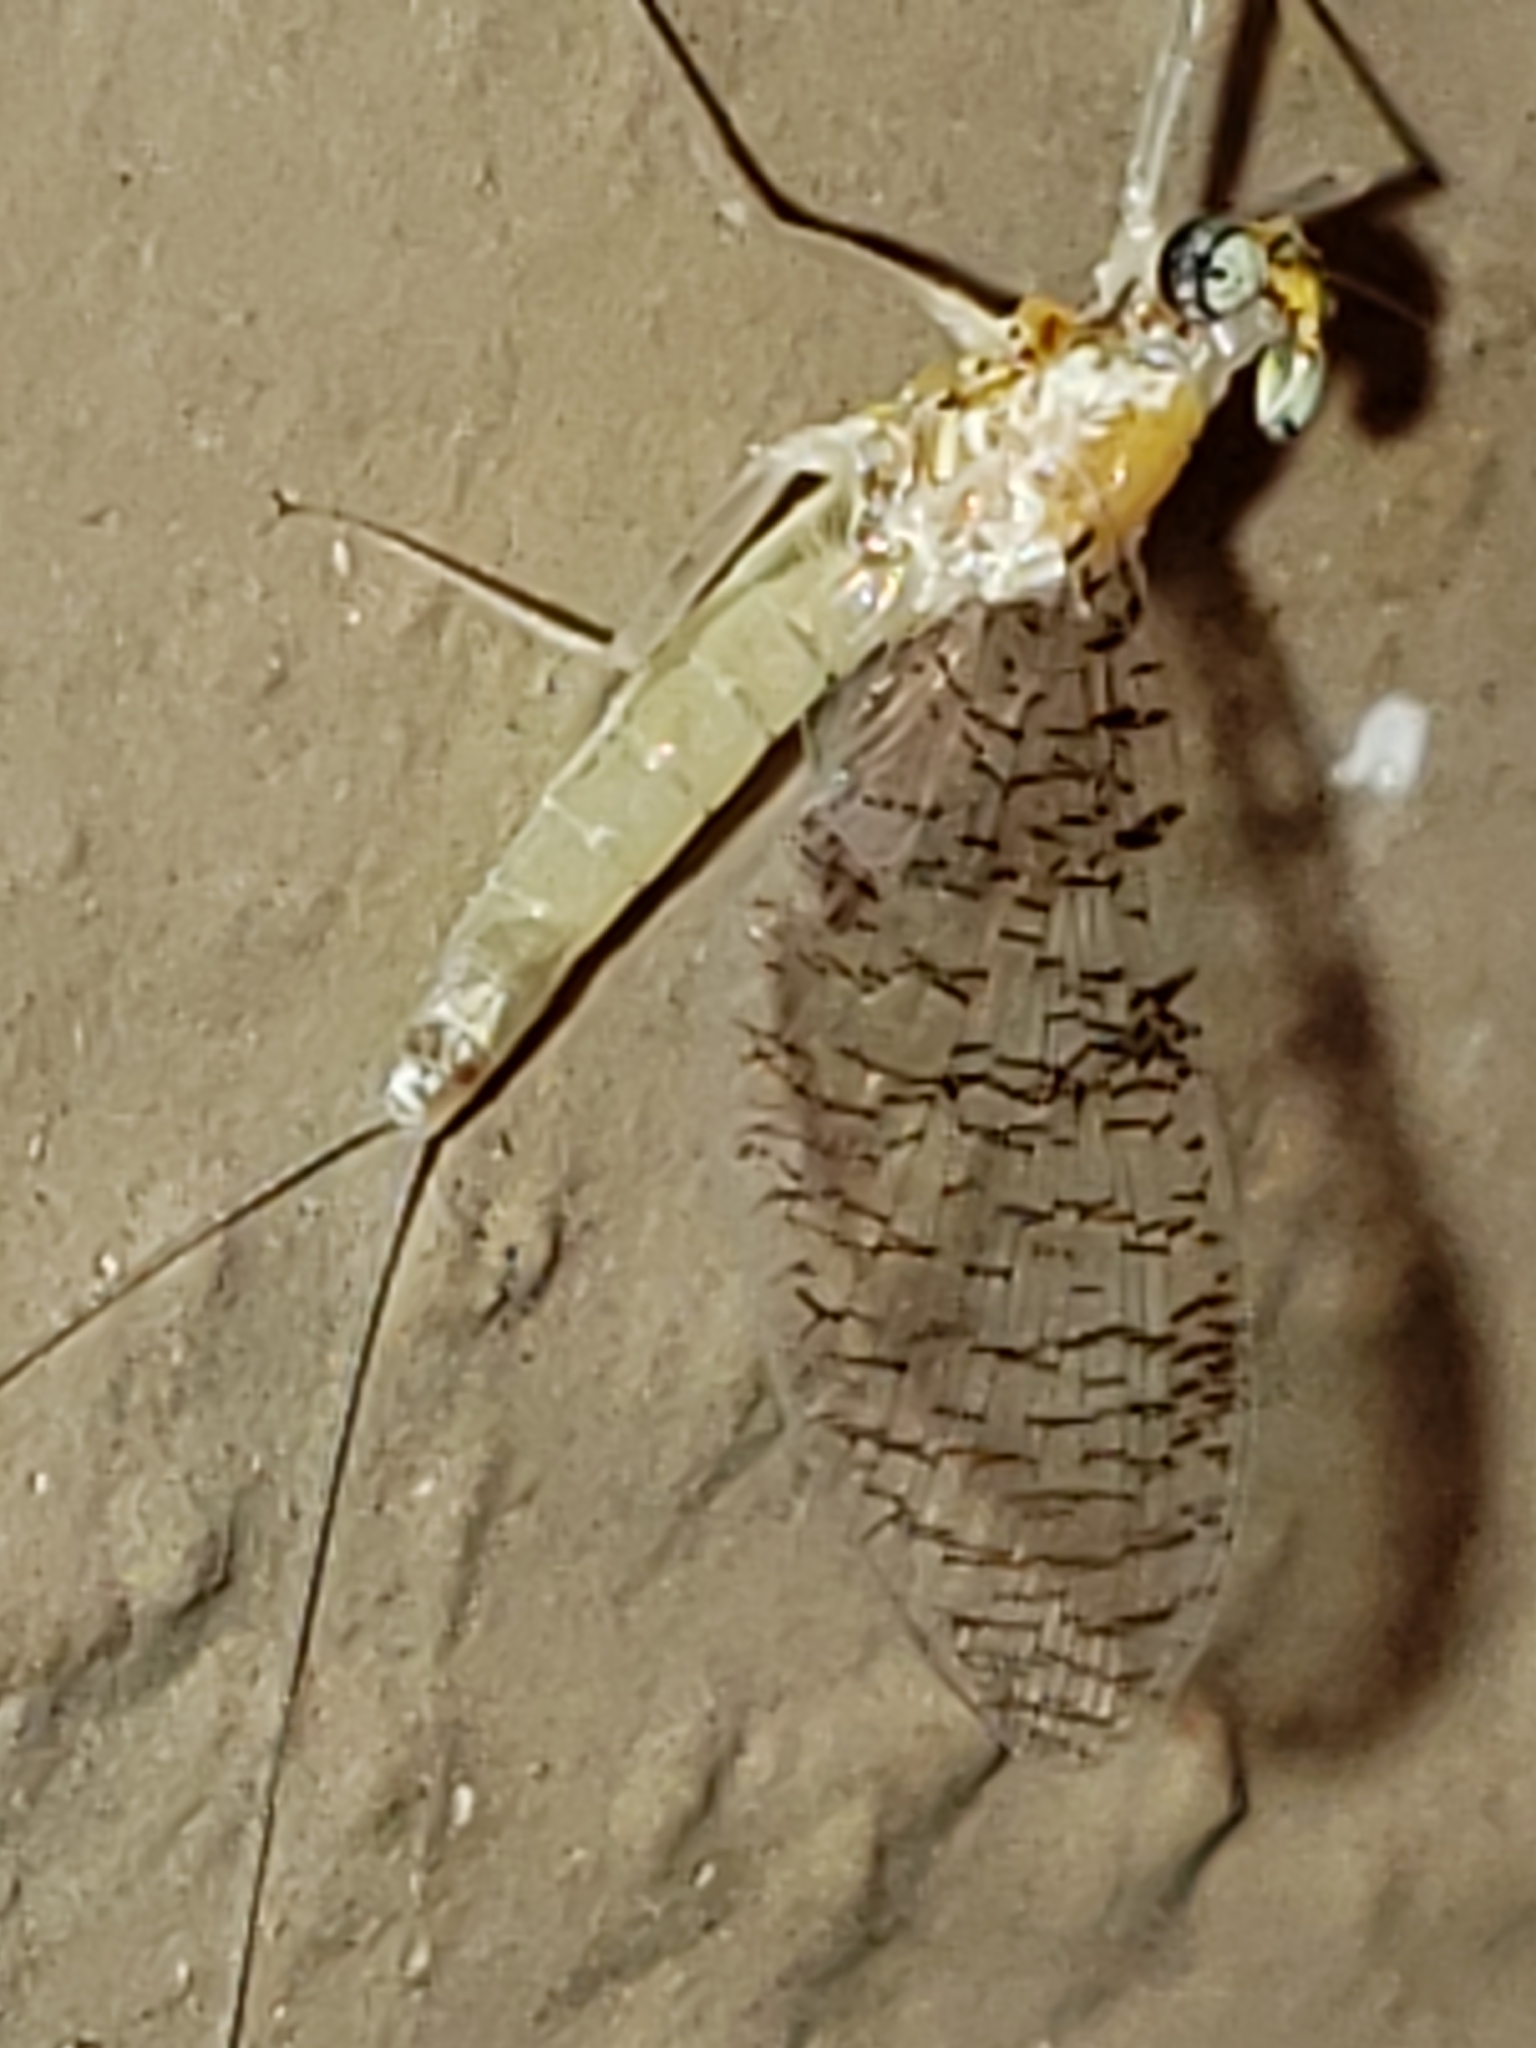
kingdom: Animalia
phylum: Arthropoda
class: Insecta
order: Ephemeroptera
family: Heptageniidae
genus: Leucrocuta
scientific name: Leucrocuta maculipennis
